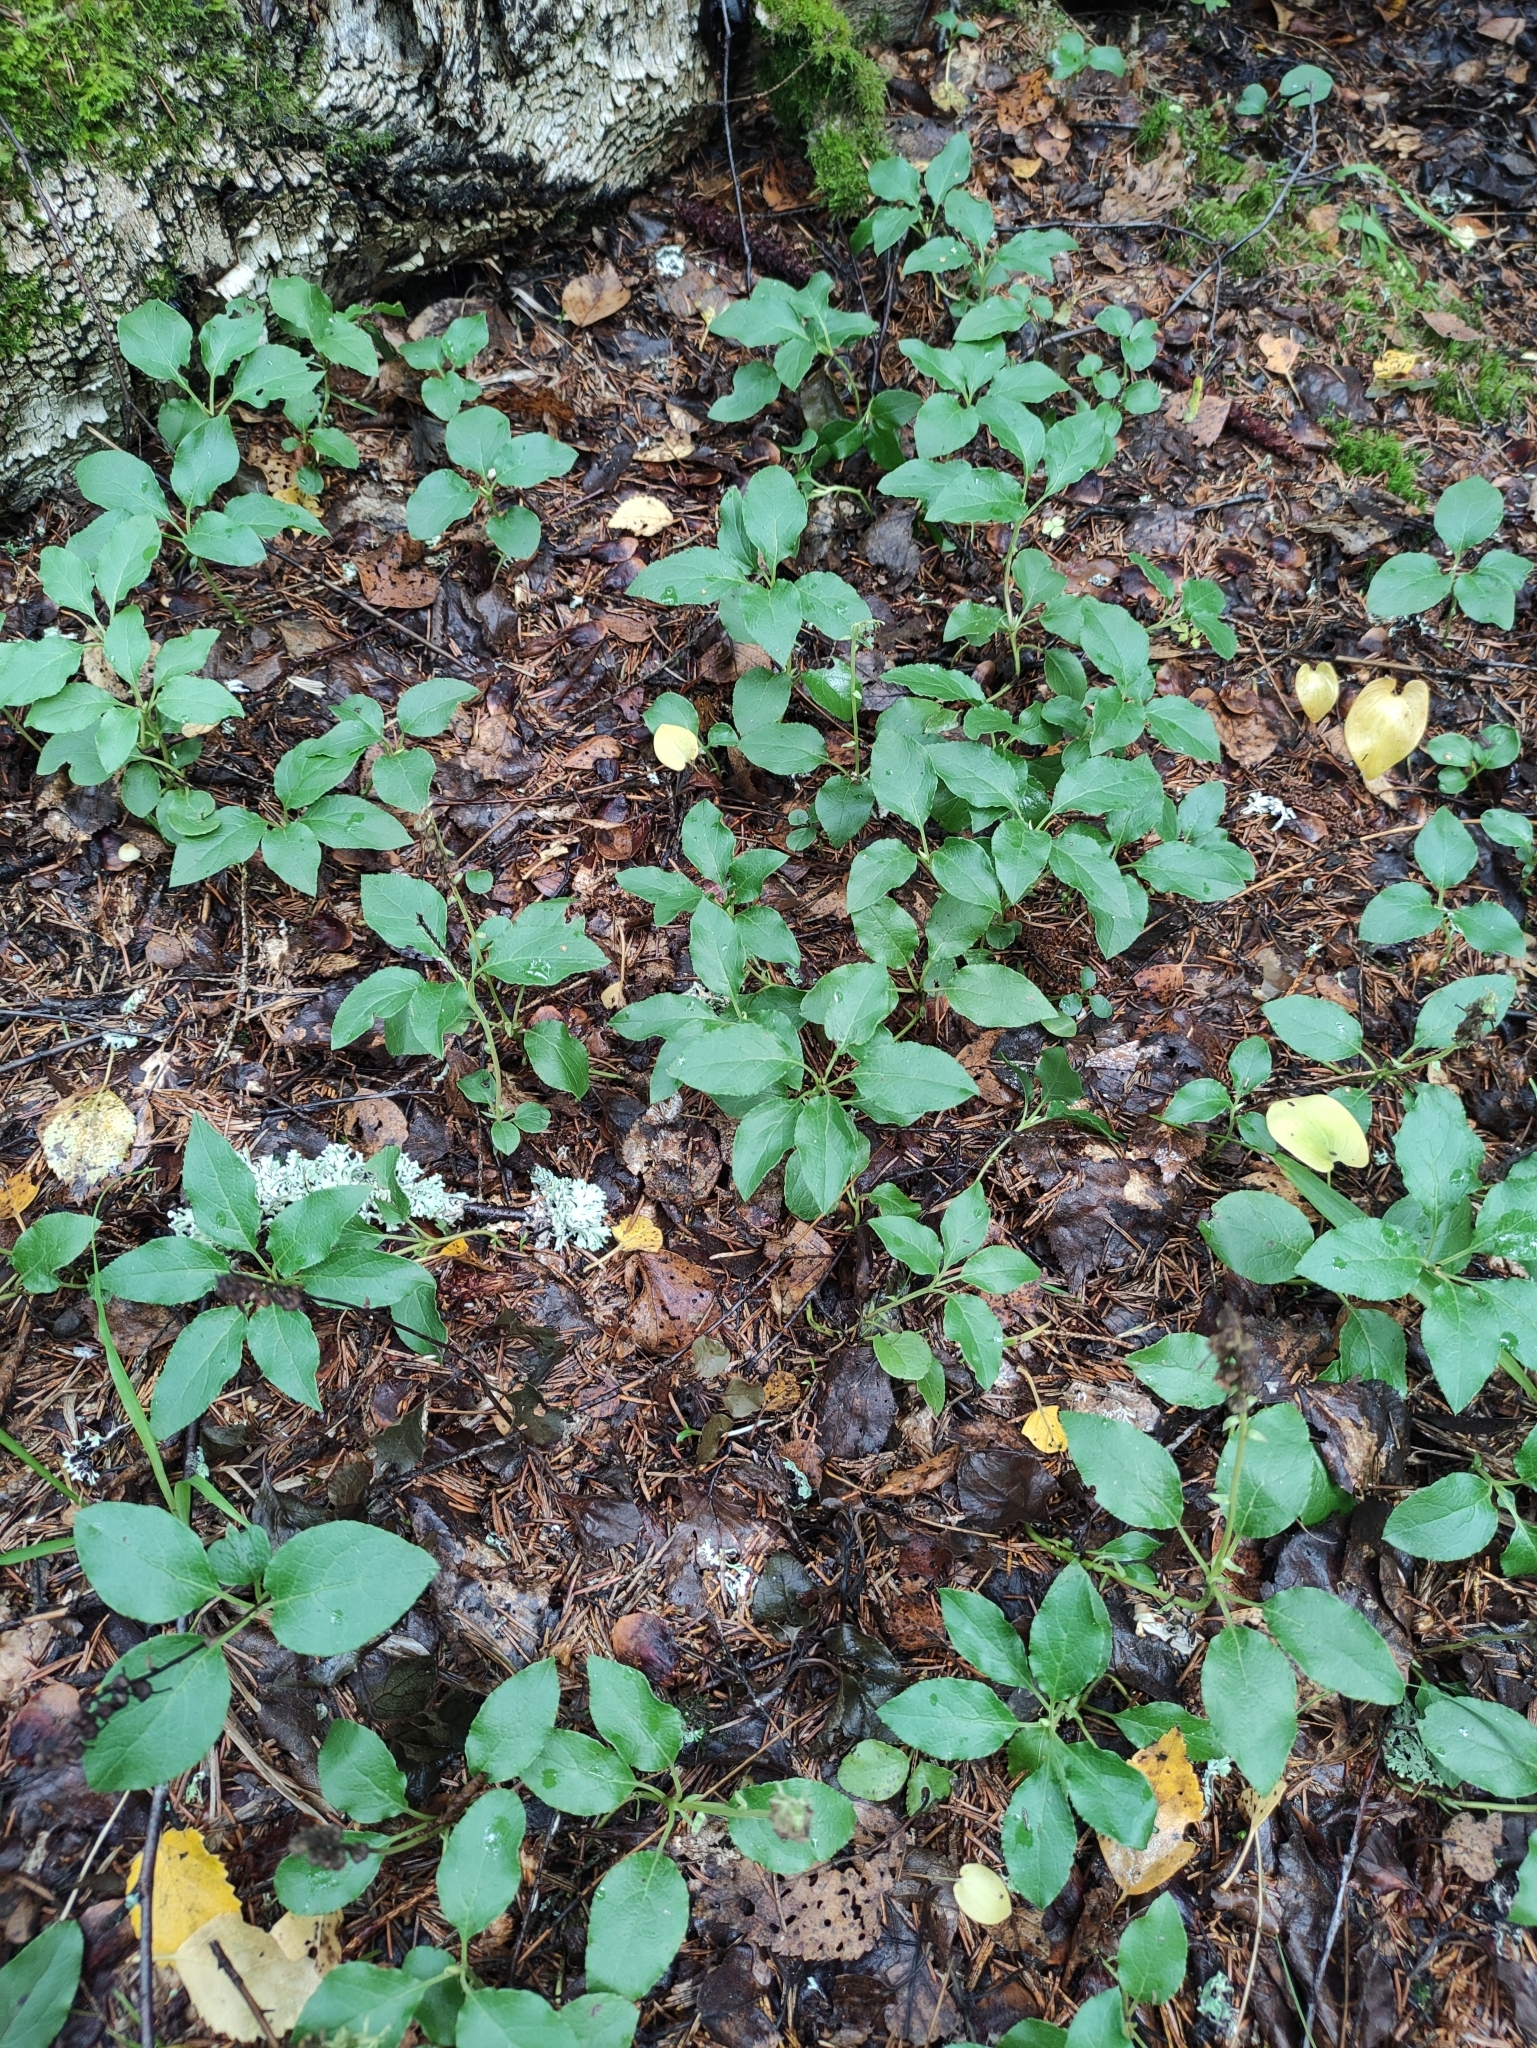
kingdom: Plantae
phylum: Tracheophyta
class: Magnoliopsida
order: Ericales
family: Ericaceae
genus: Orthilia
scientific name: Orthilia secunda
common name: One-sided orthilia
